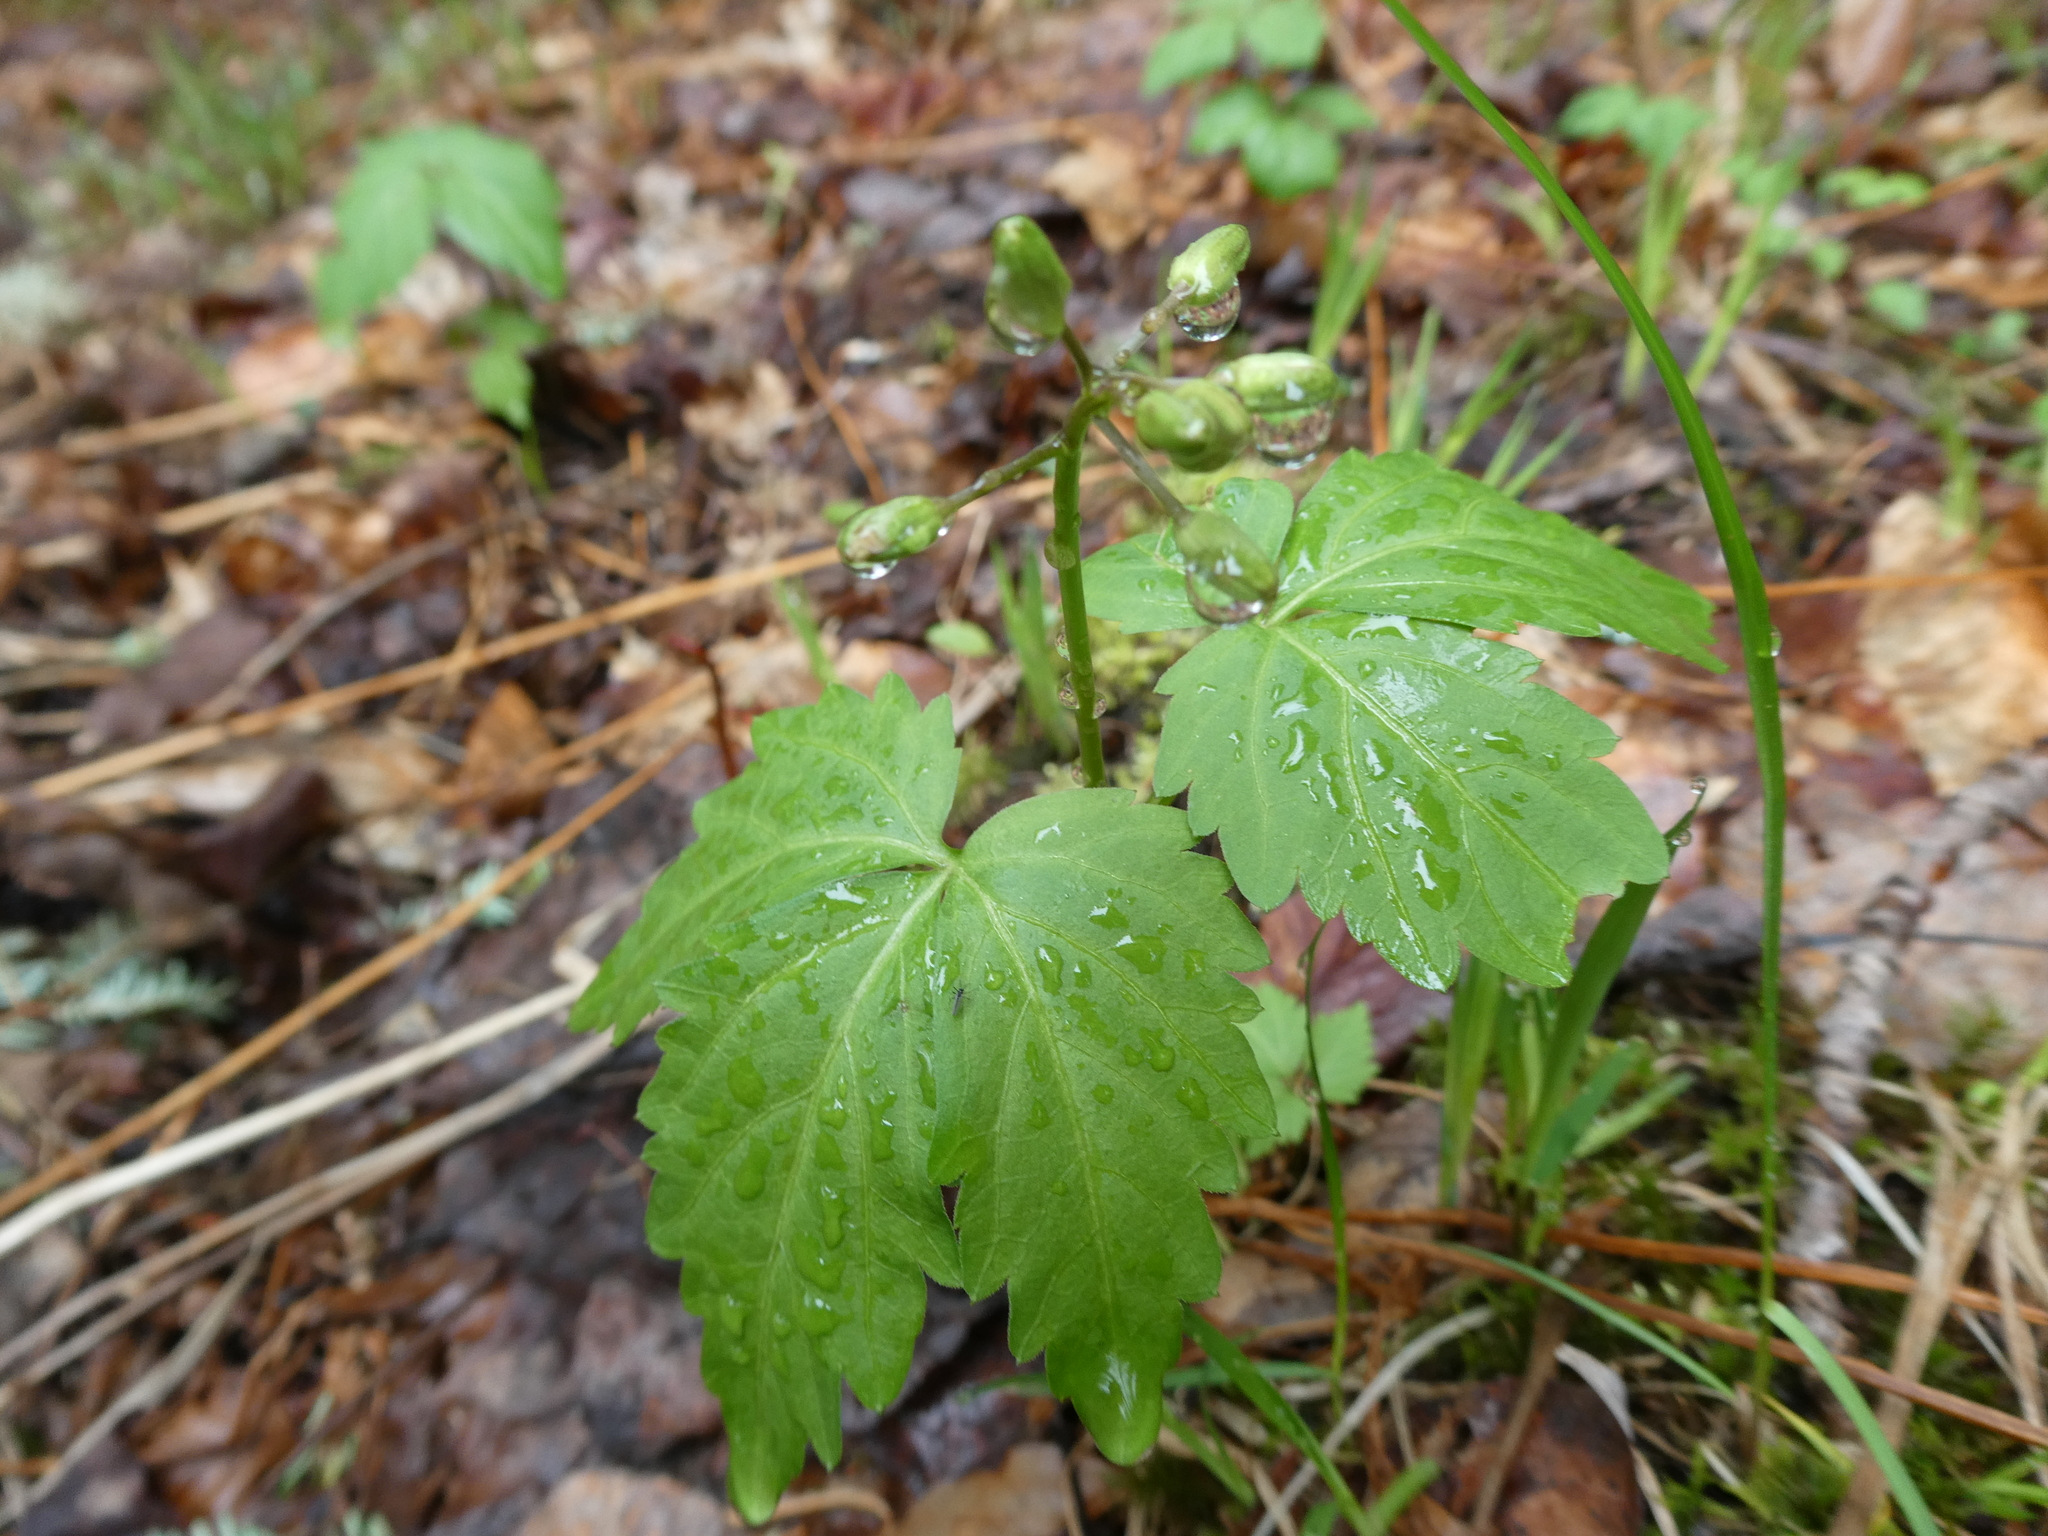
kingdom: Plantae
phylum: Tracheophyta
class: Magnoliopsida
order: Brassicales
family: Brassicaceae
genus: Cardamine
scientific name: Cardamine diphylla
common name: Broad-leaved toothwort
